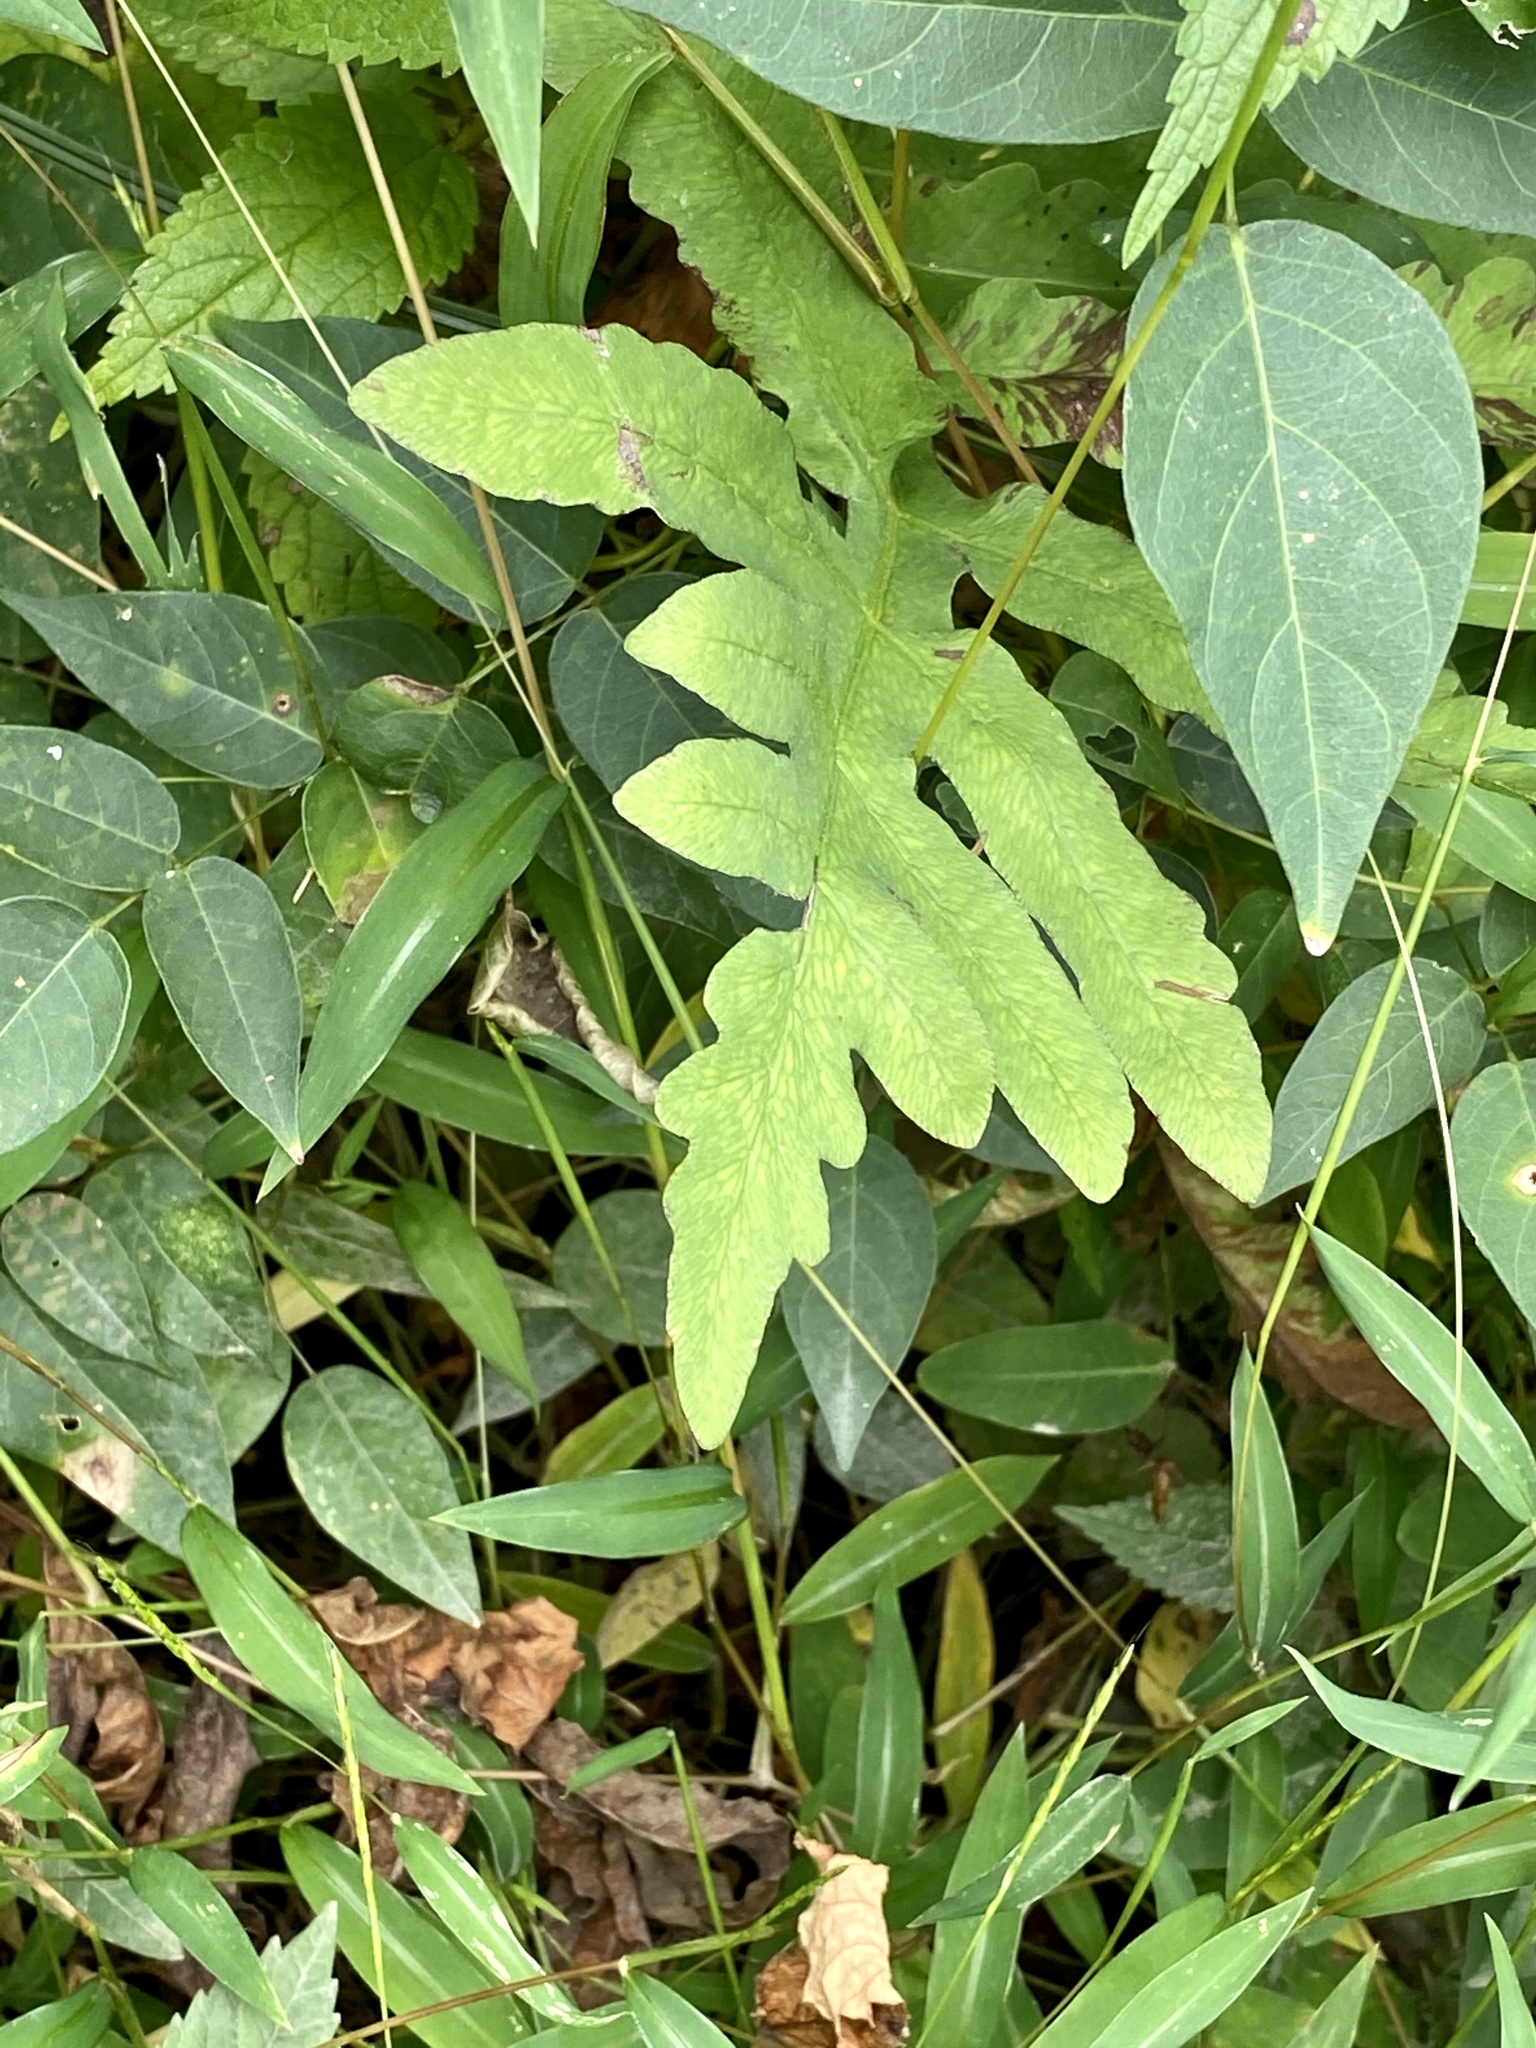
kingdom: Plantae
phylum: Tracheophyta
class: Polypodiopsida
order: Polypodiales
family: Onocleaceae
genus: Onoclea
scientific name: Onoclea sensibilis
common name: Sensitive fern
